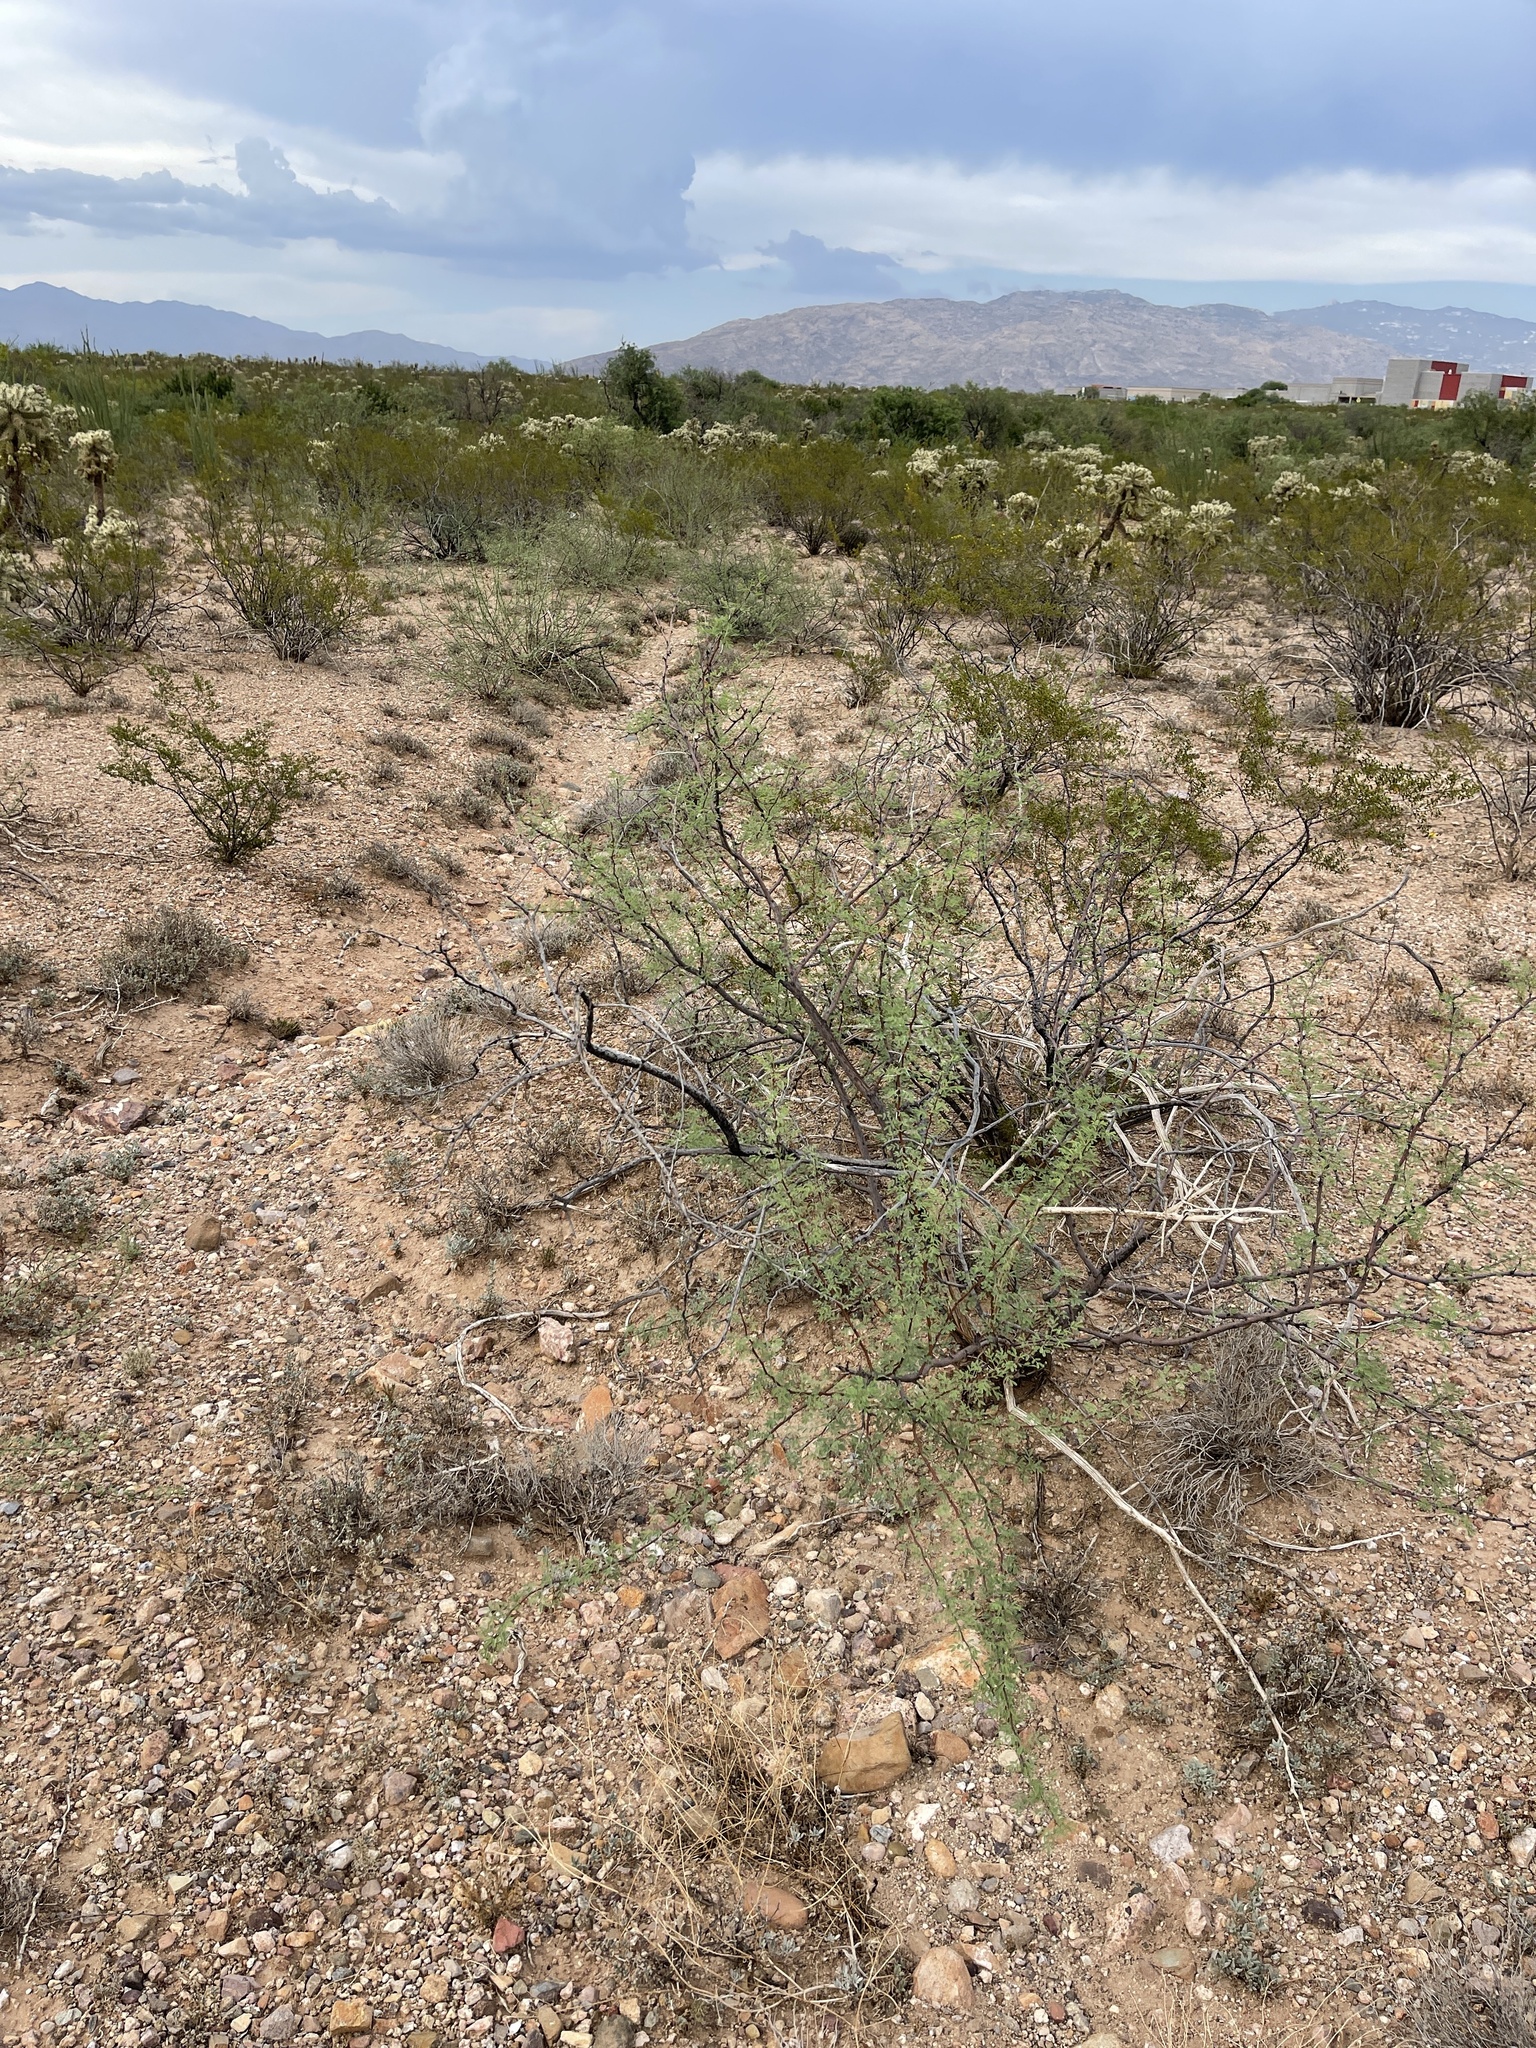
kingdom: Plantae
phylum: Tracheophyta
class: Magnoliopsida
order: Fabales
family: Fabaceae
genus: Vachellia
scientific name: Vachellia constricta
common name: Mescat acacia
